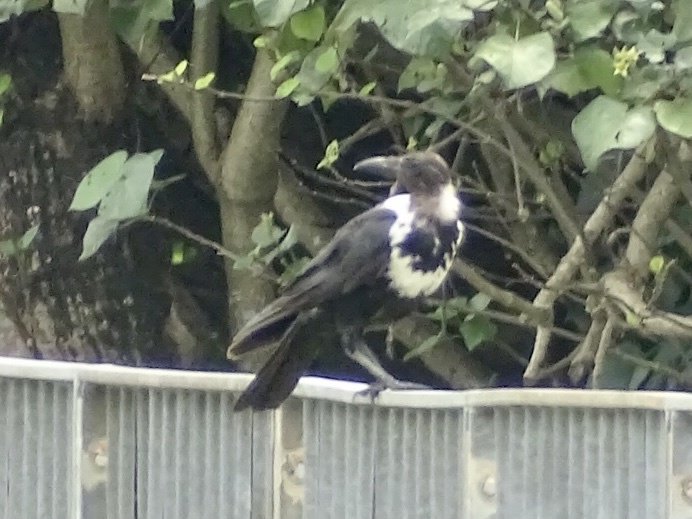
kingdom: Animalia
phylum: Chordata
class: Aves
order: Passeriformes
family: Corvidae
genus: Corvus
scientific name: Corvus pectoralis
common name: Collared crow
